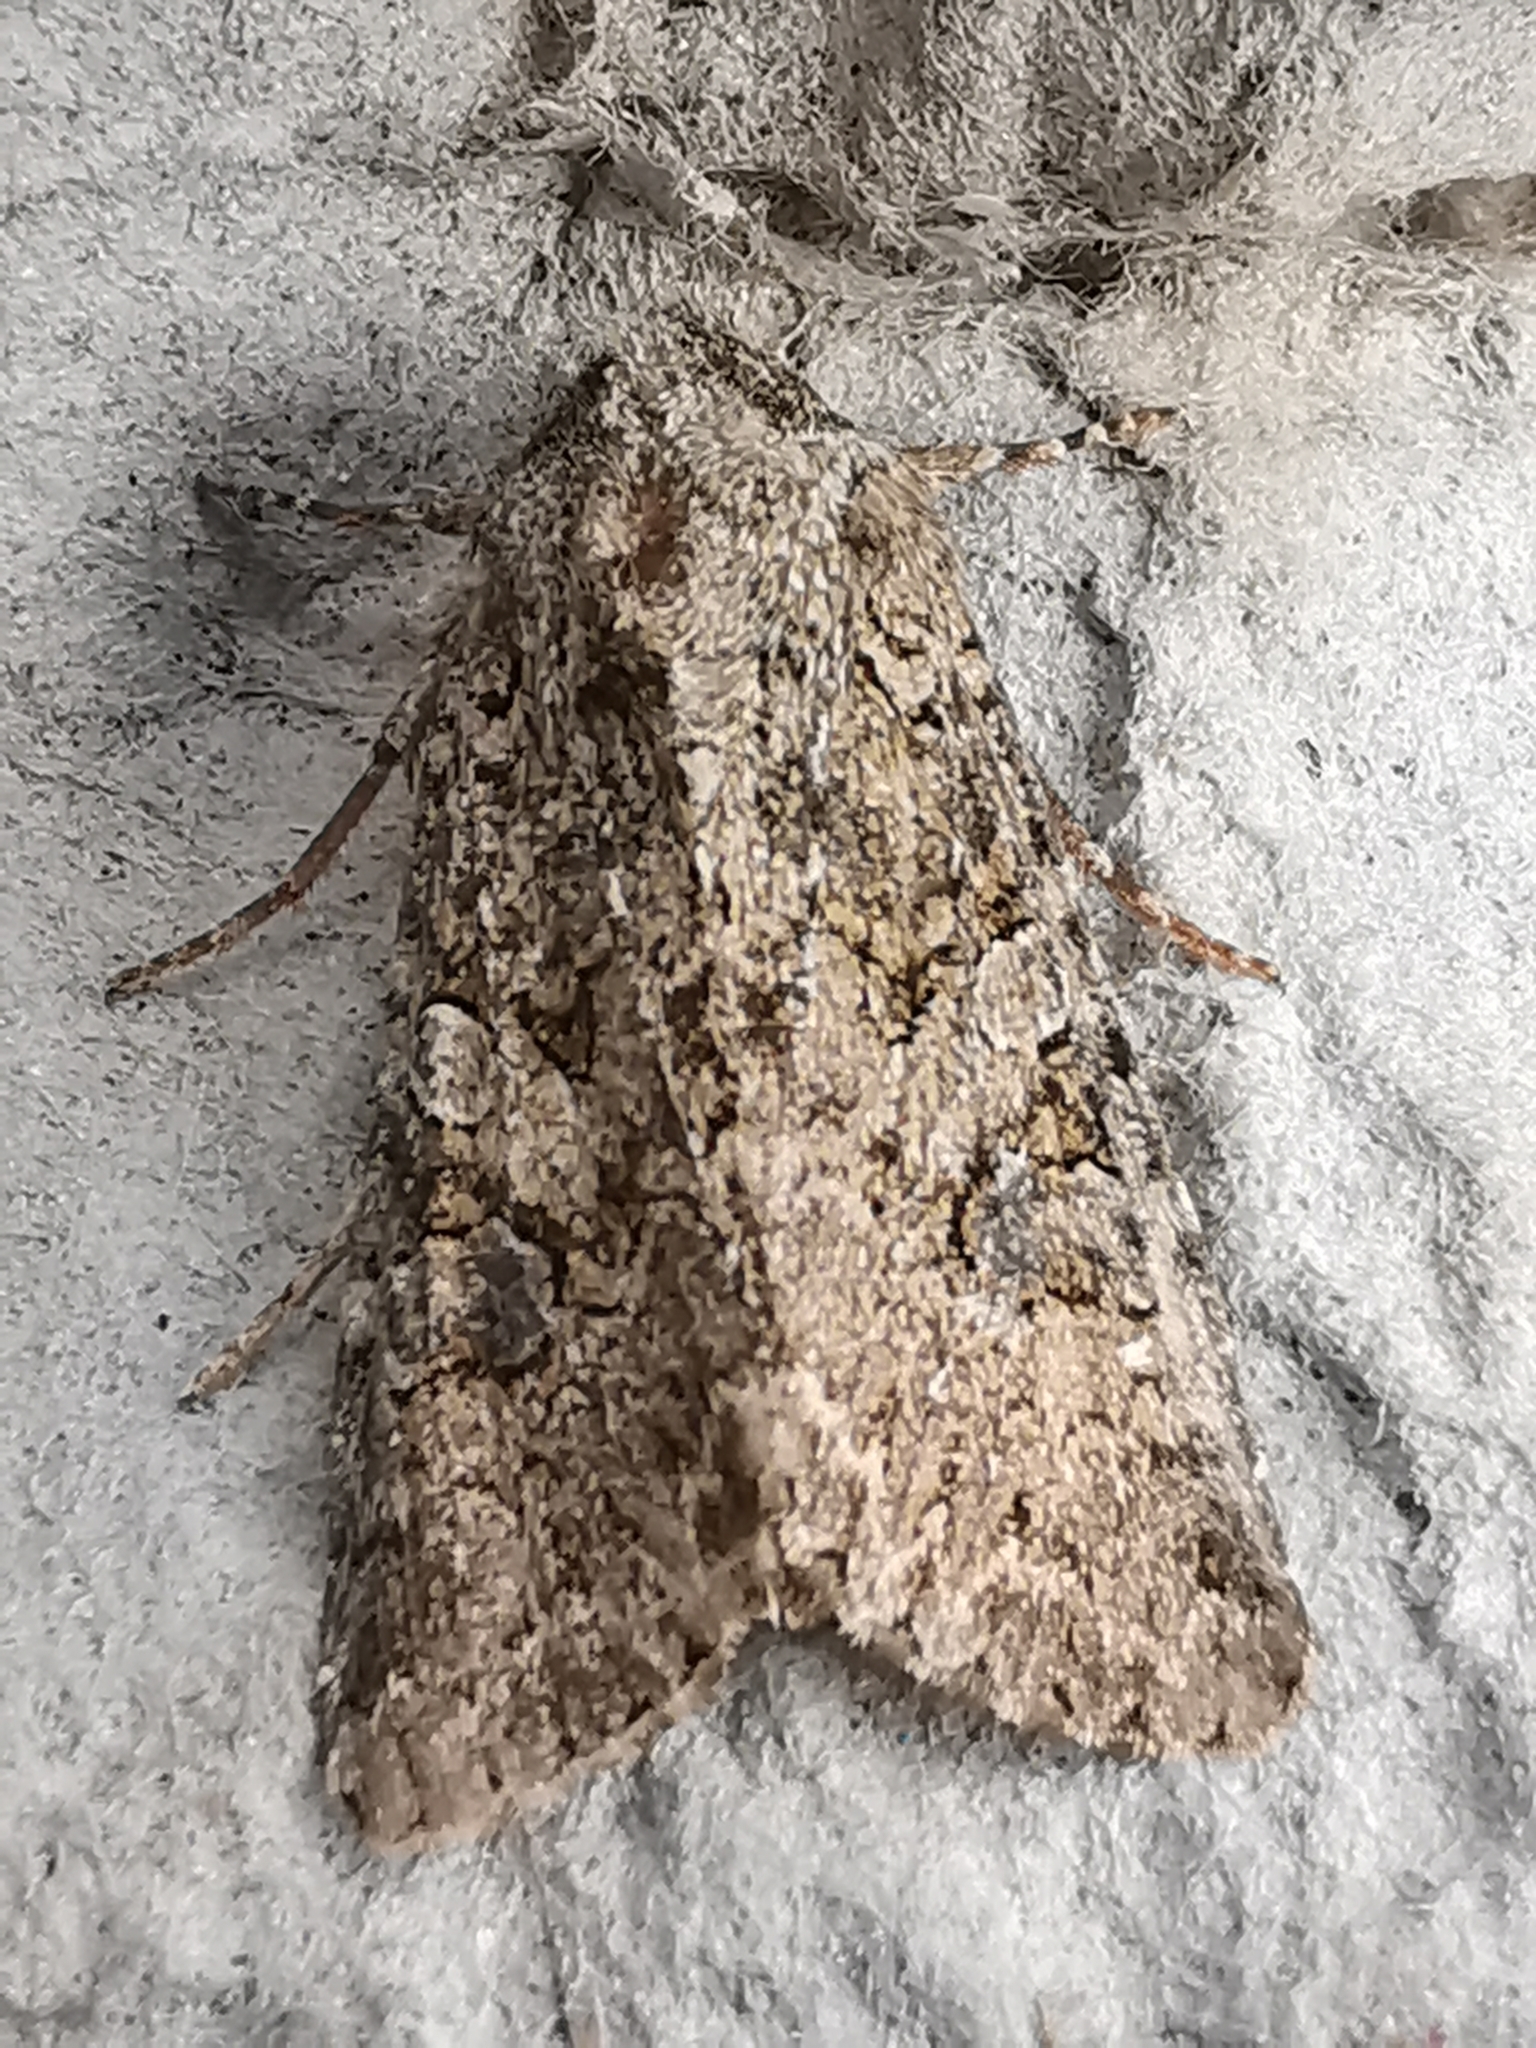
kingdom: Animalia
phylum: Arthropoda
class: Insecta
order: Lepidoptera
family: Noctuidae
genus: Anarta
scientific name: Anarta trifolii
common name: Clover cutworm moth
